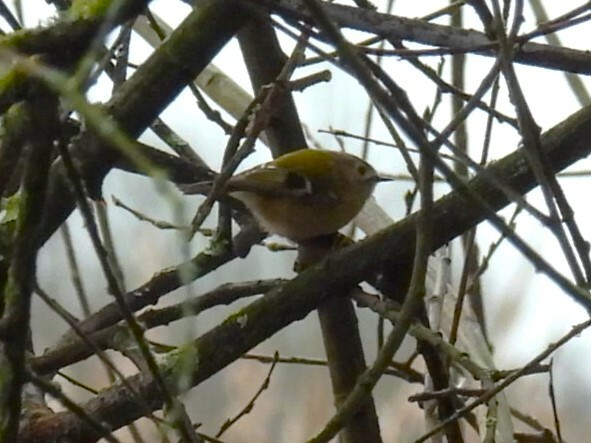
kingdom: Animalia
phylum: Chordata
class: Aves
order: Passeriformes
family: Regulidae
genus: Regulus
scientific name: Regulus regulus
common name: Goldcrest
